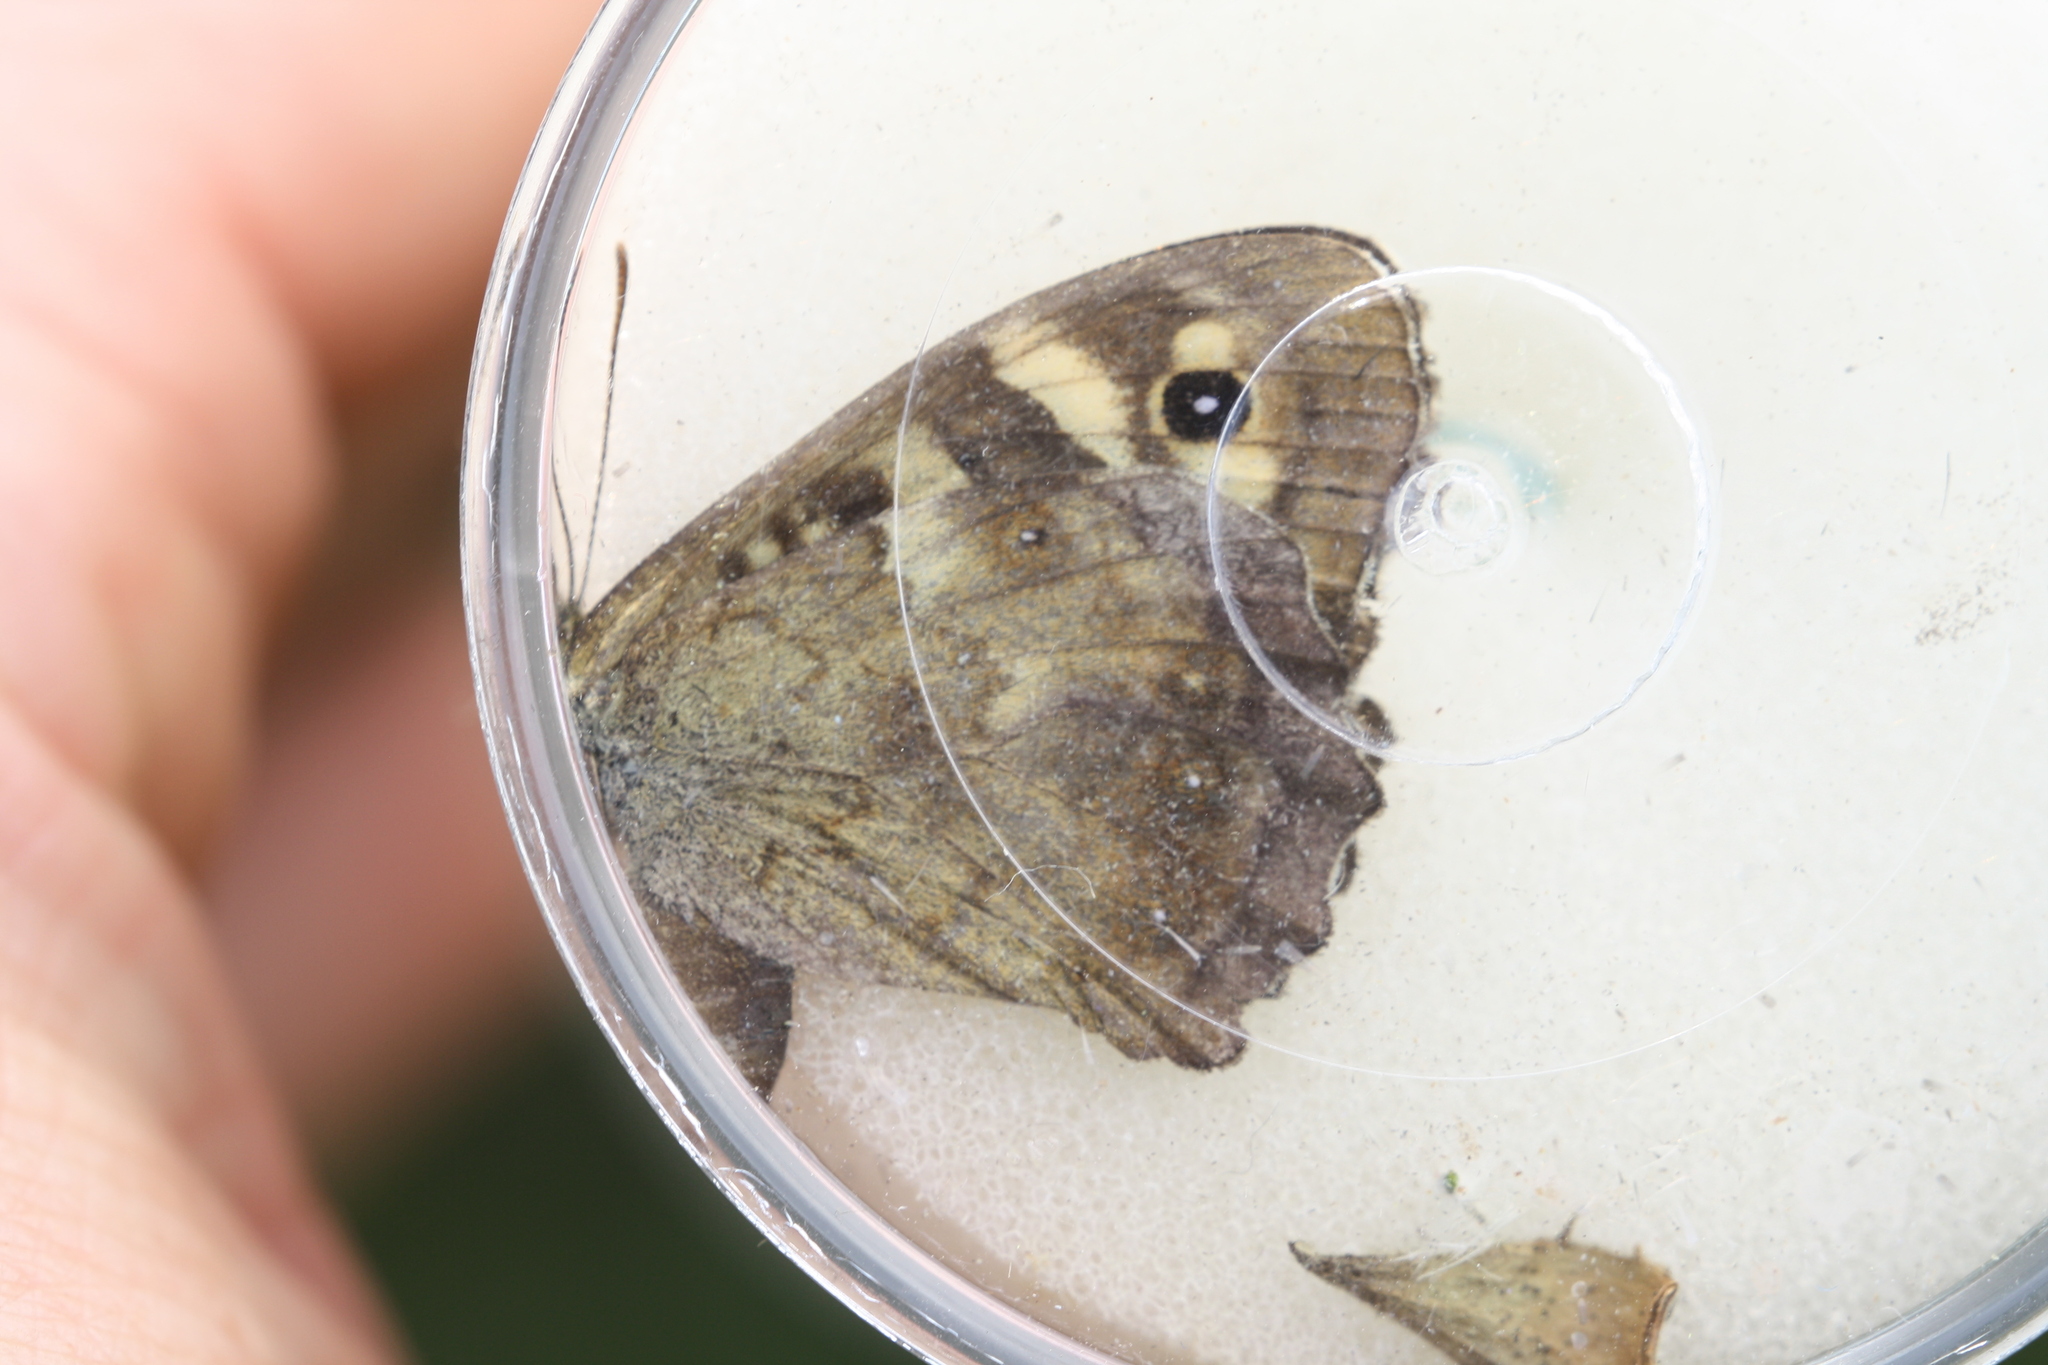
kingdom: Animalia
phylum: Arthropoda
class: Insecta
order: Lepidoptera
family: Nymphalidae
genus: Pararge
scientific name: Pararge aegeria
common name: Speckled wood
